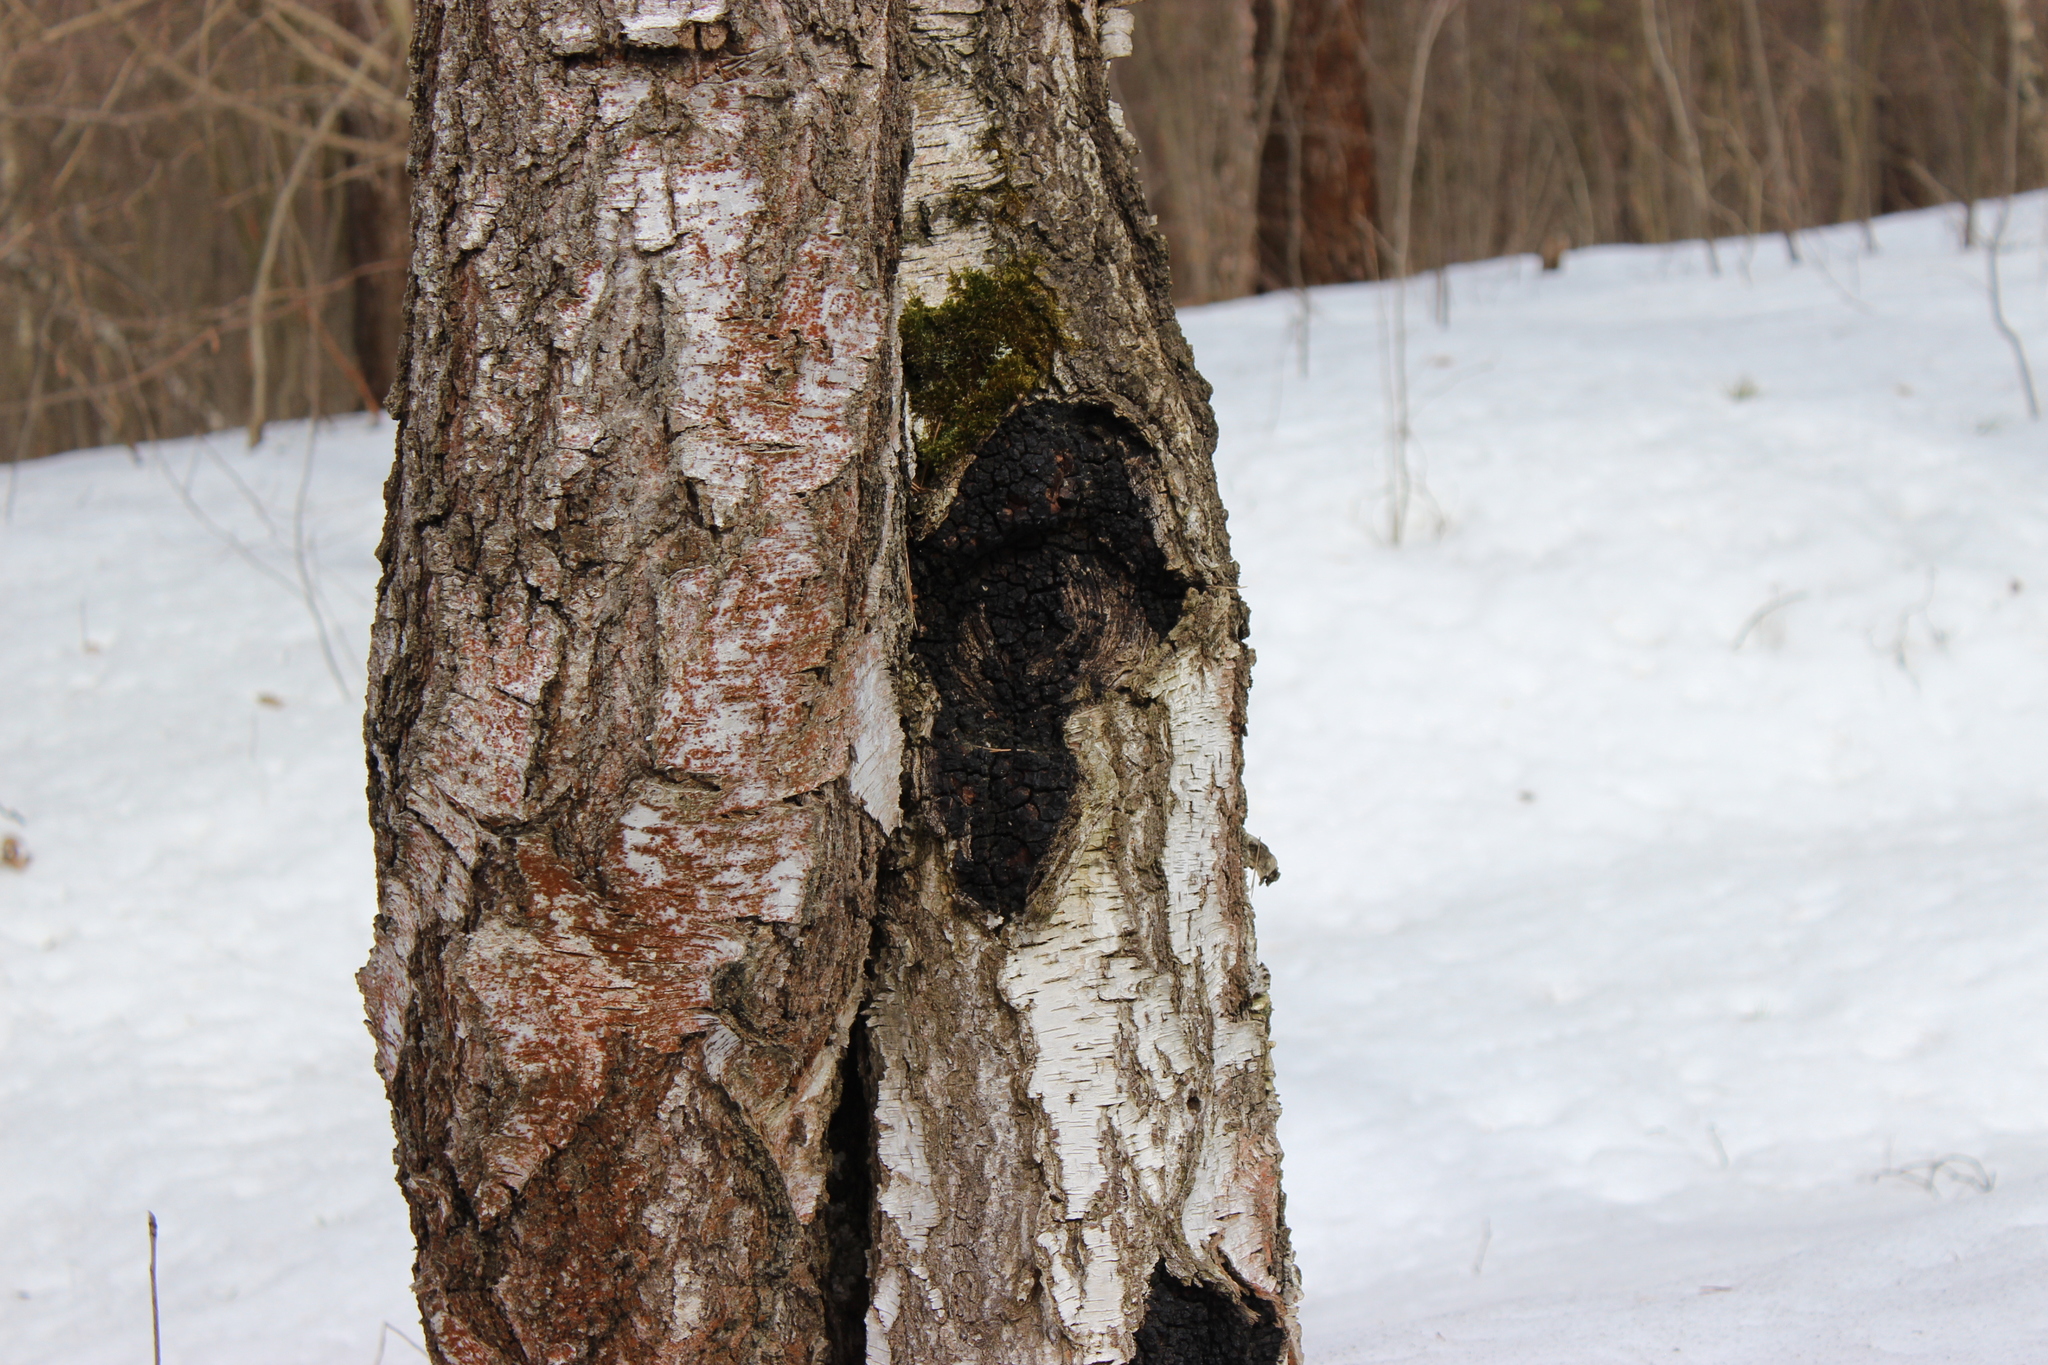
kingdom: Fungi
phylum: Basidiomycota
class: Agaricomycetes
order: Hymenochaetales
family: Hymenochaetaceae
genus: Inonotus
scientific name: Inonotus obliquus
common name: Chaga
